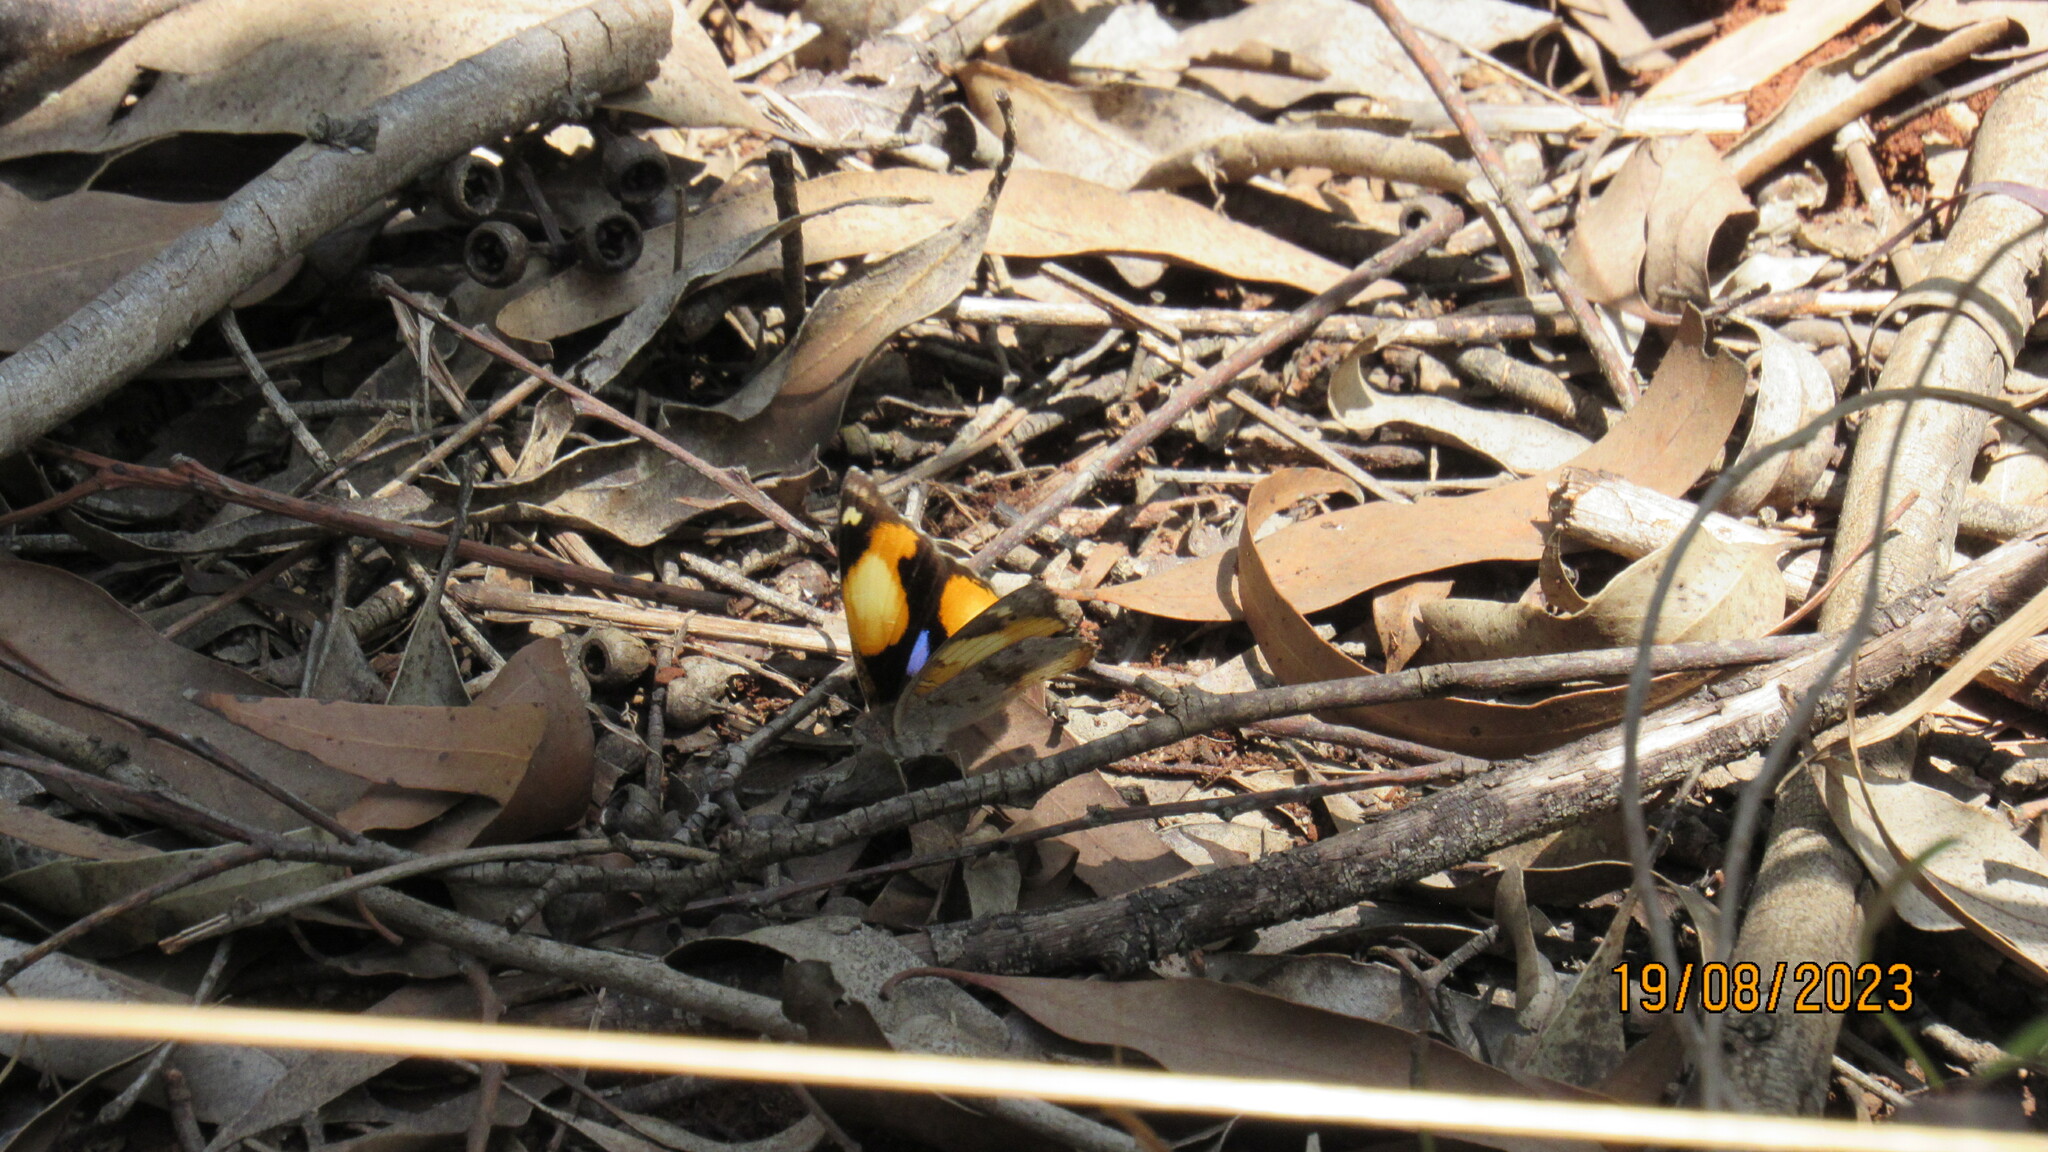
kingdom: Animalia
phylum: Arthropoda
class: Insecta
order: Lepidoptera
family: Nymphalidae
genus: Junonia
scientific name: Junonia hierta
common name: Yellow pansy
